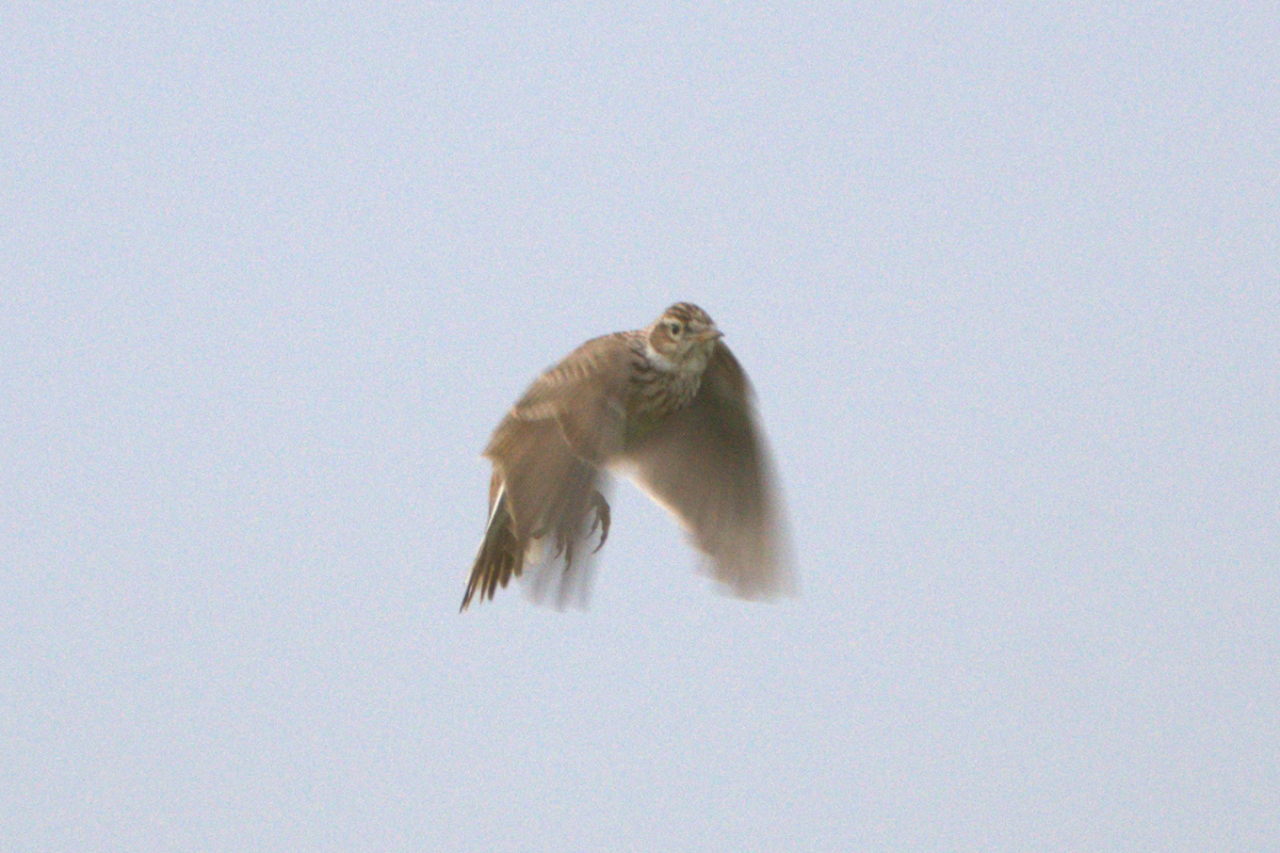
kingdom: Animalia
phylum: Chordata
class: Aves
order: Passeriformes
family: Alaudidae
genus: Alauda
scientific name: Alauda arvensis
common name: Eurasian skylark
